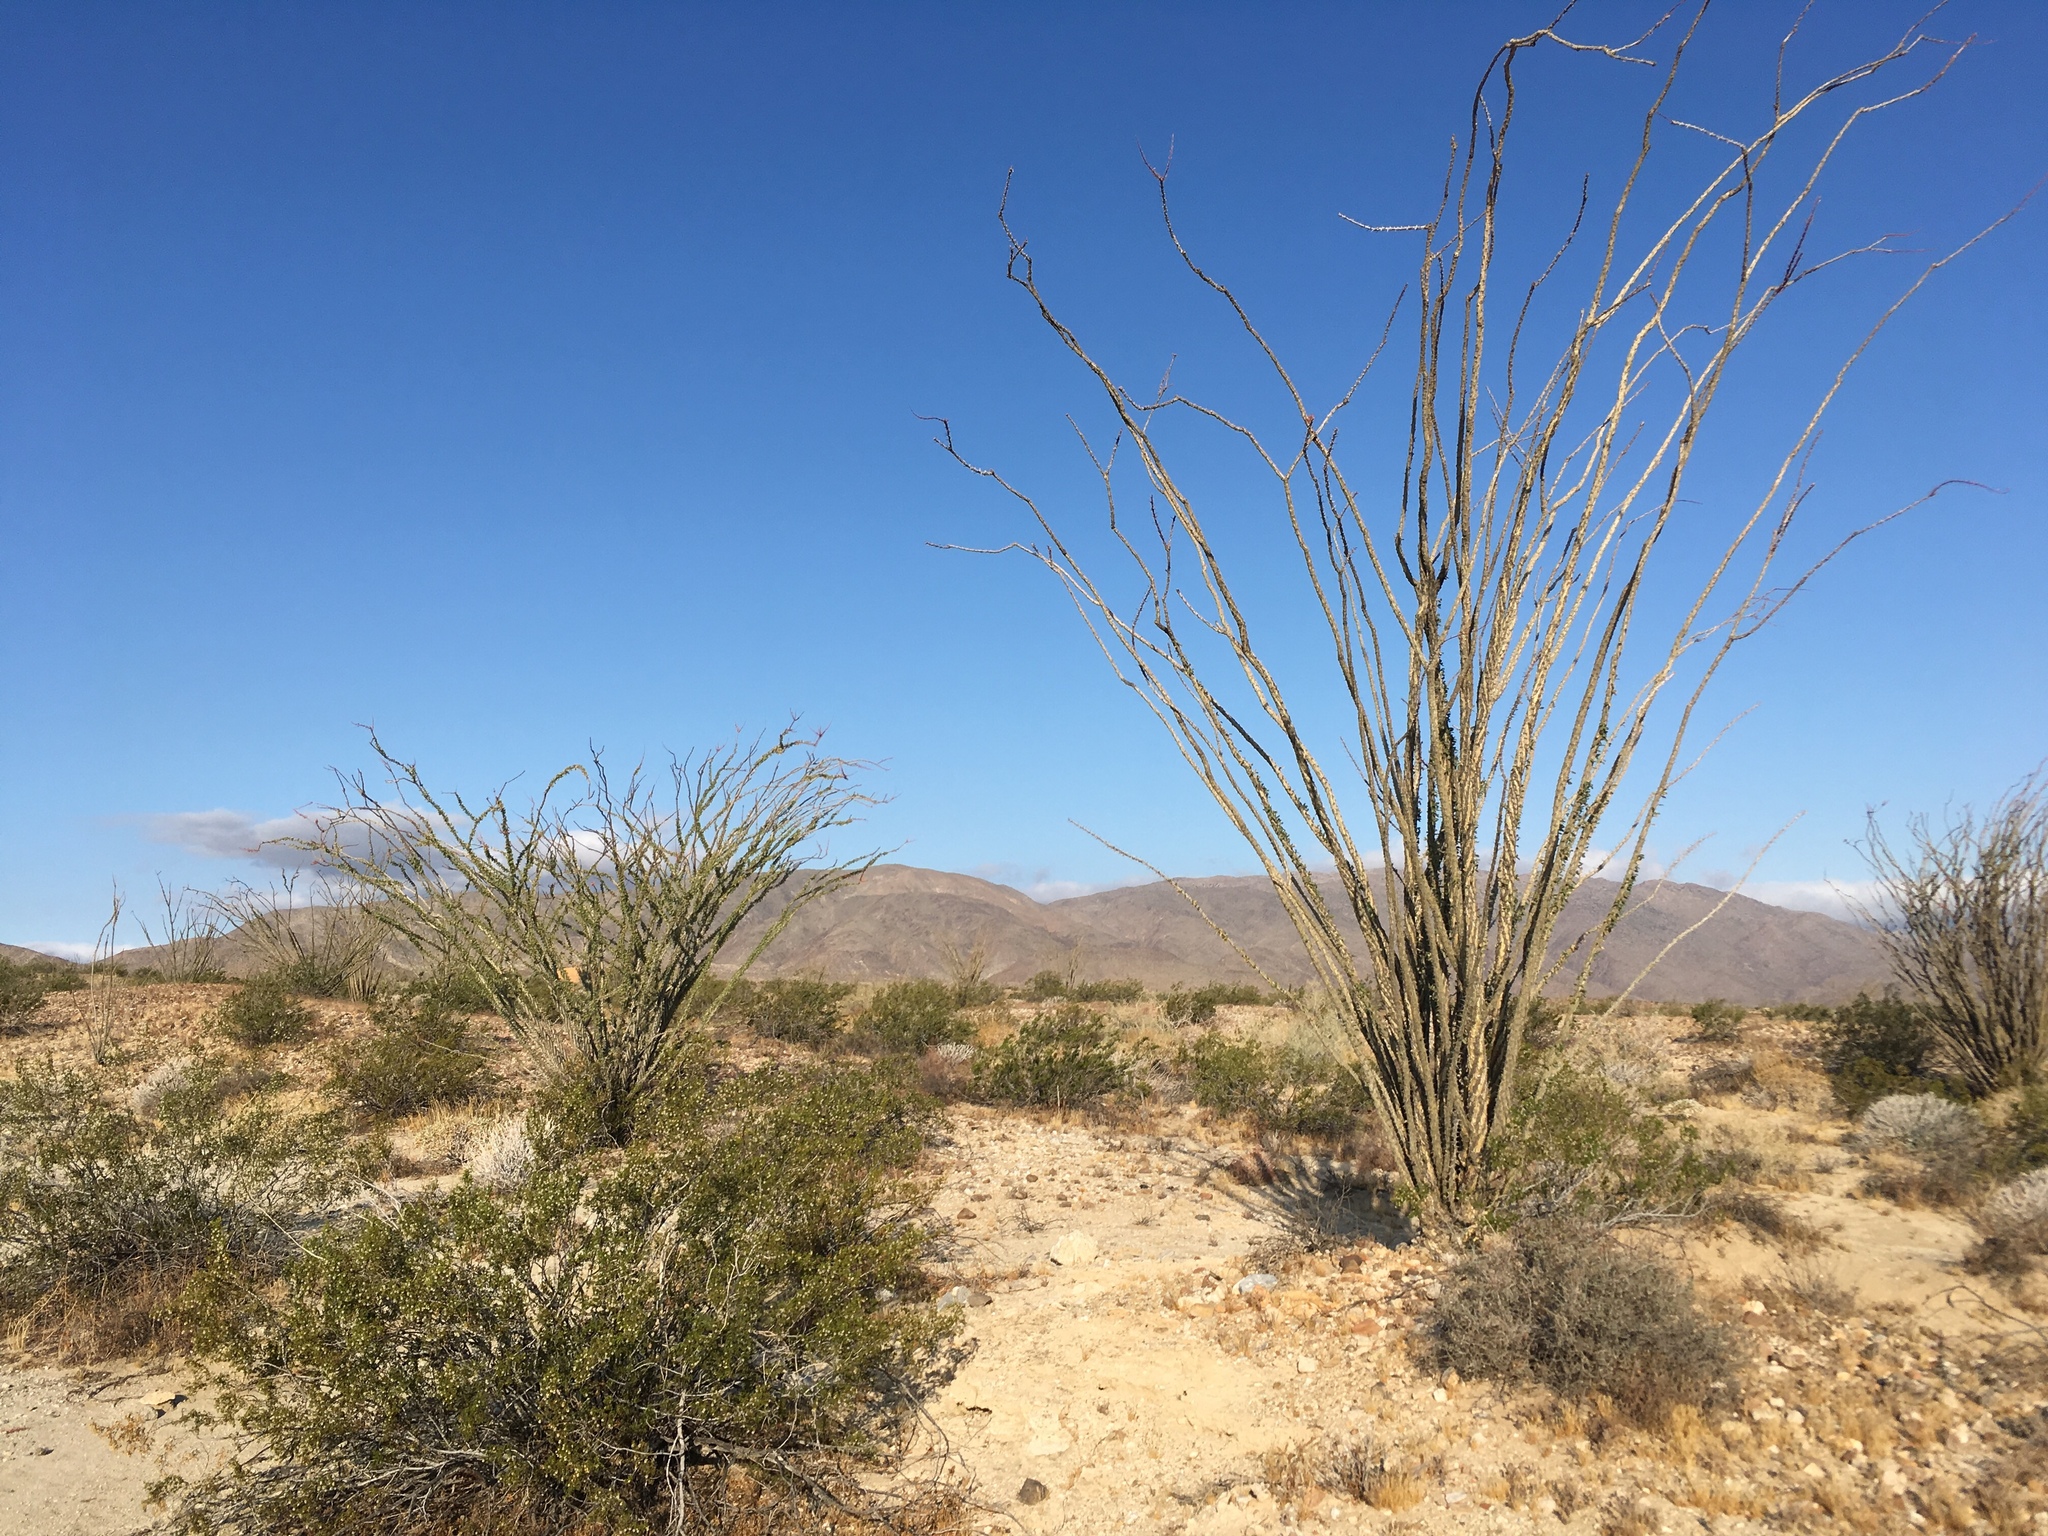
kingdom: Plantae
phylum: Tracheophyta
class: Magnoliopsida
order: Zygophyllales
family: Zygophyllaceae
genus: Larrea
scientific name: Larrea tridentata
